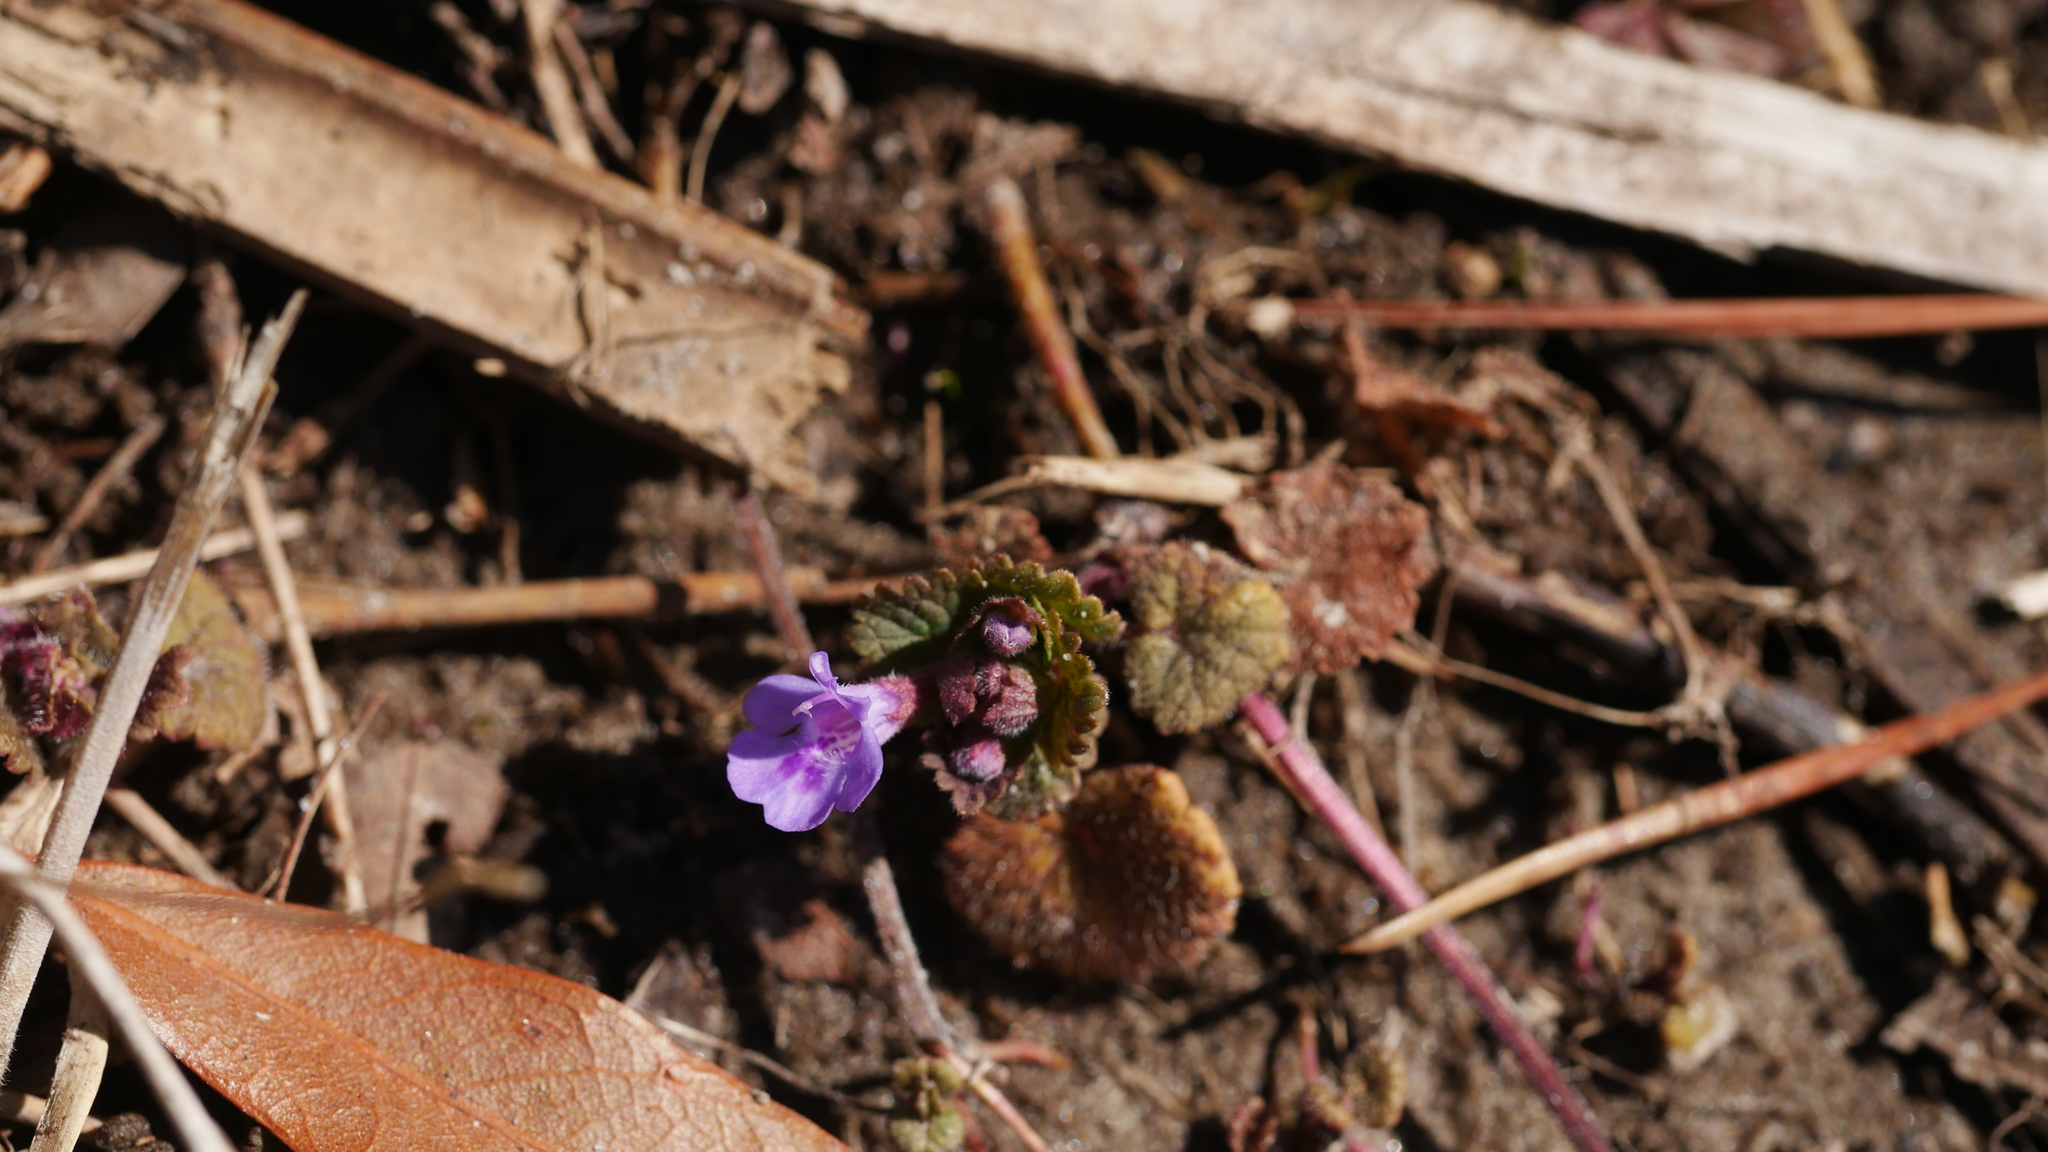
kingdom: Plantae
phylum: Tracheophyta
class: Magnoliopsida
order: Lamiales
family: Lamiaceae
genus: Glechoma
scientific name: Glechoma hederacea
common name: Ground ivy
